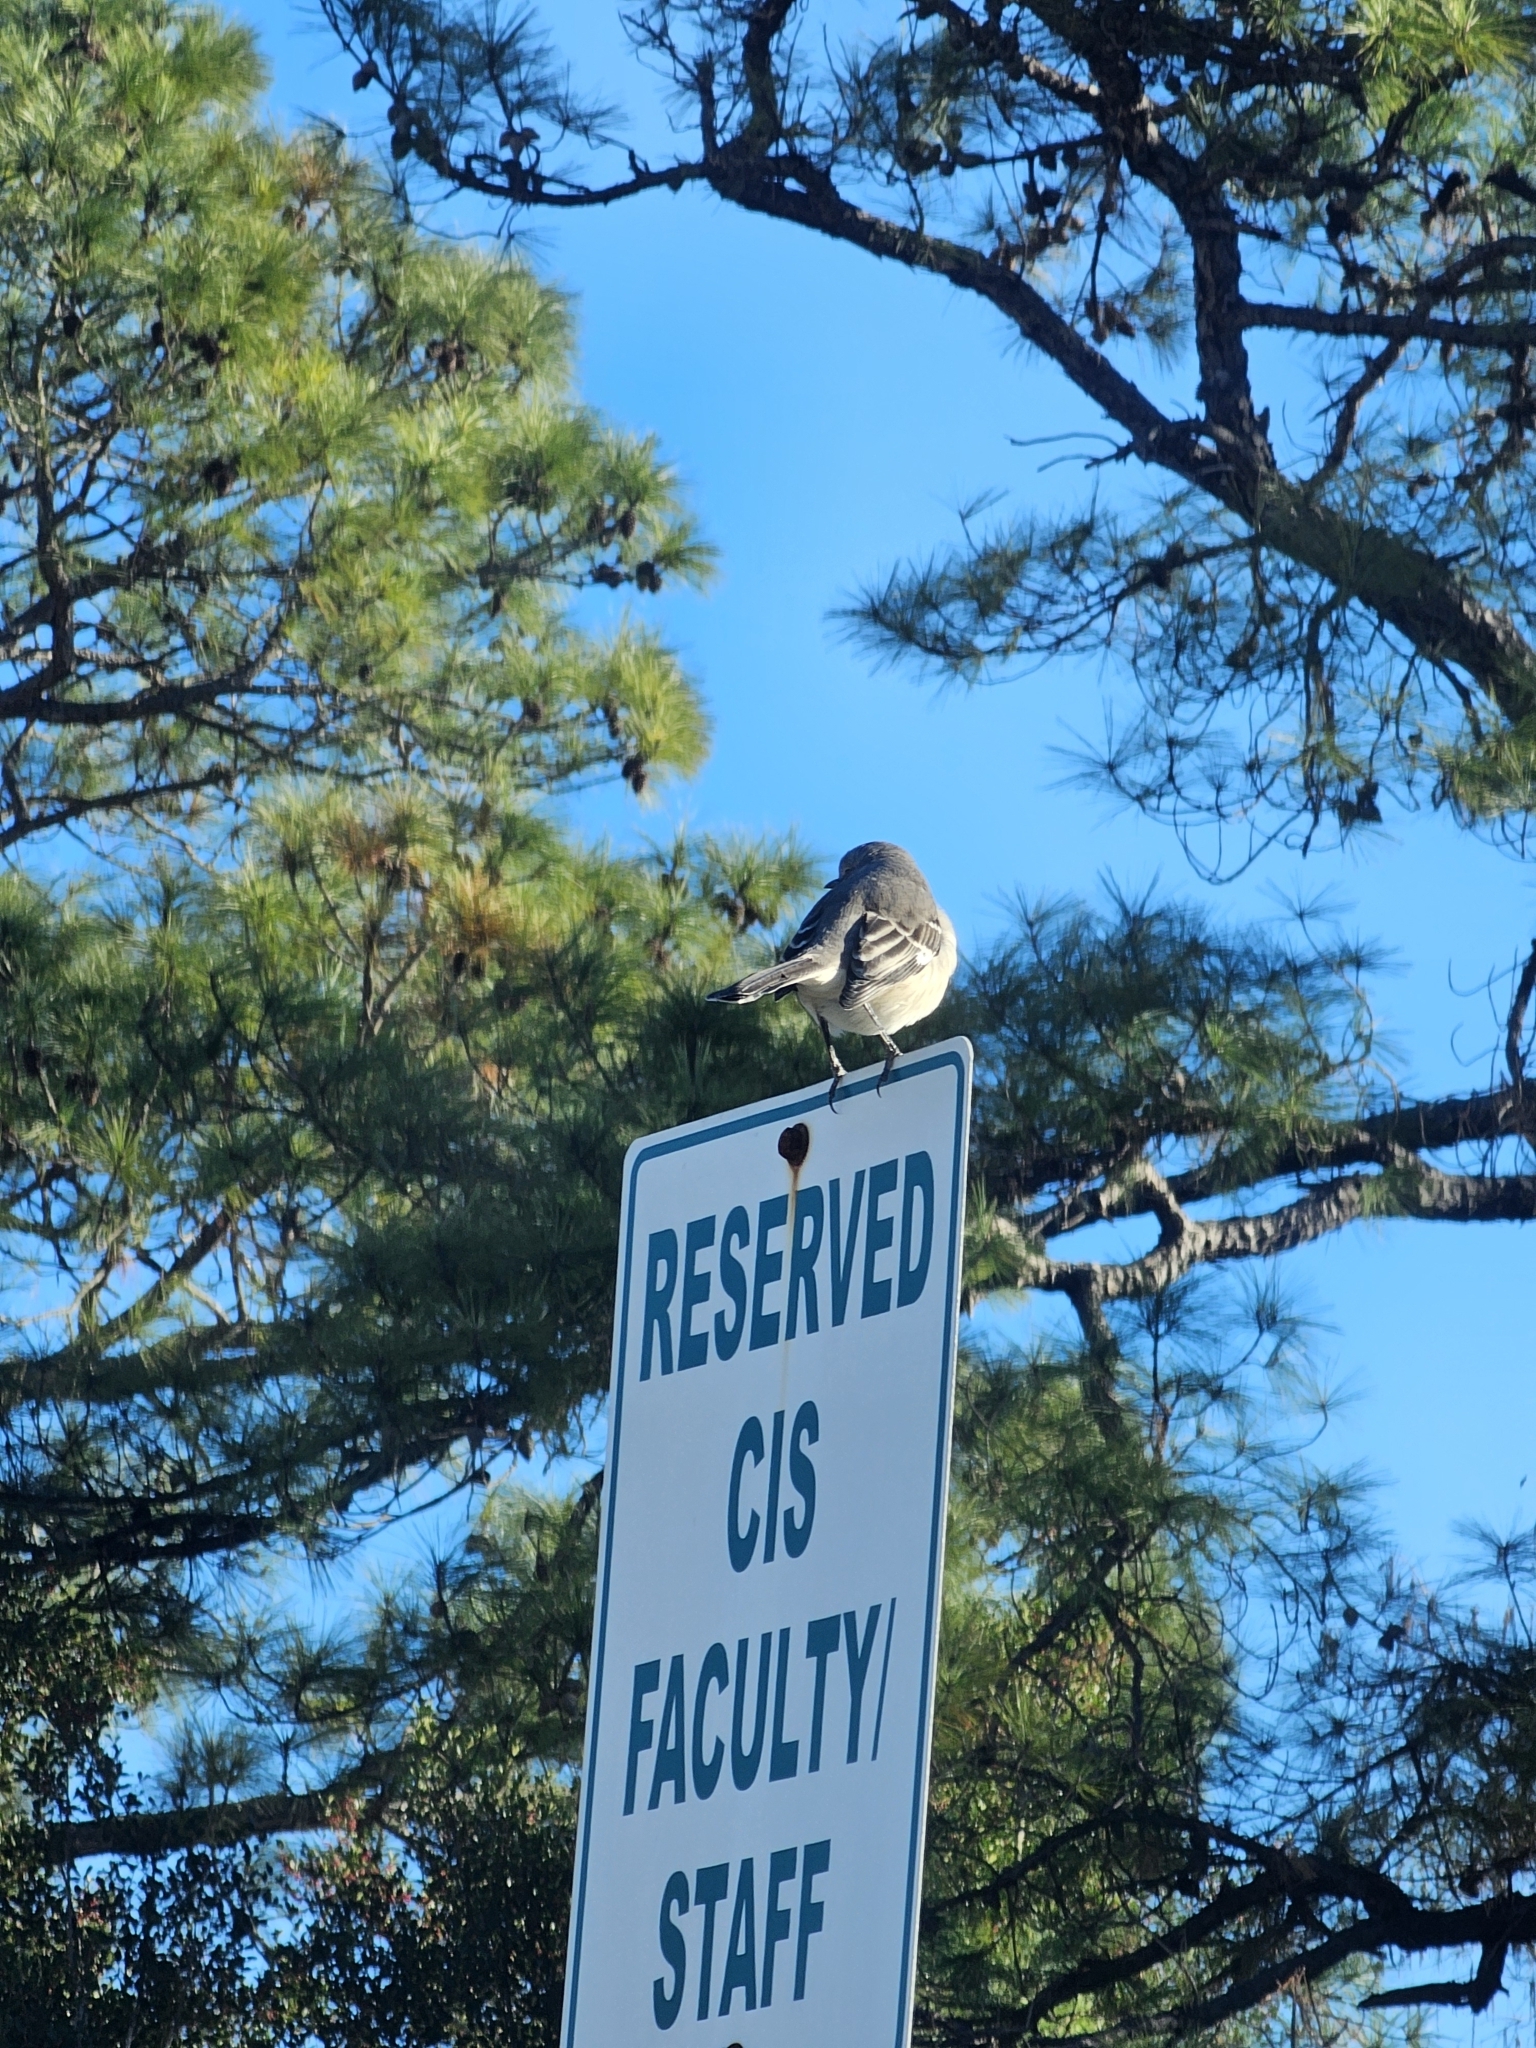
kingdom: Animalia
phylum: Chordata
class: Aves
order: Passeriformes
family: Mimidae
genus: Mimus
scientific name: Mimus polyglottos
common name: Northern mockingbird
